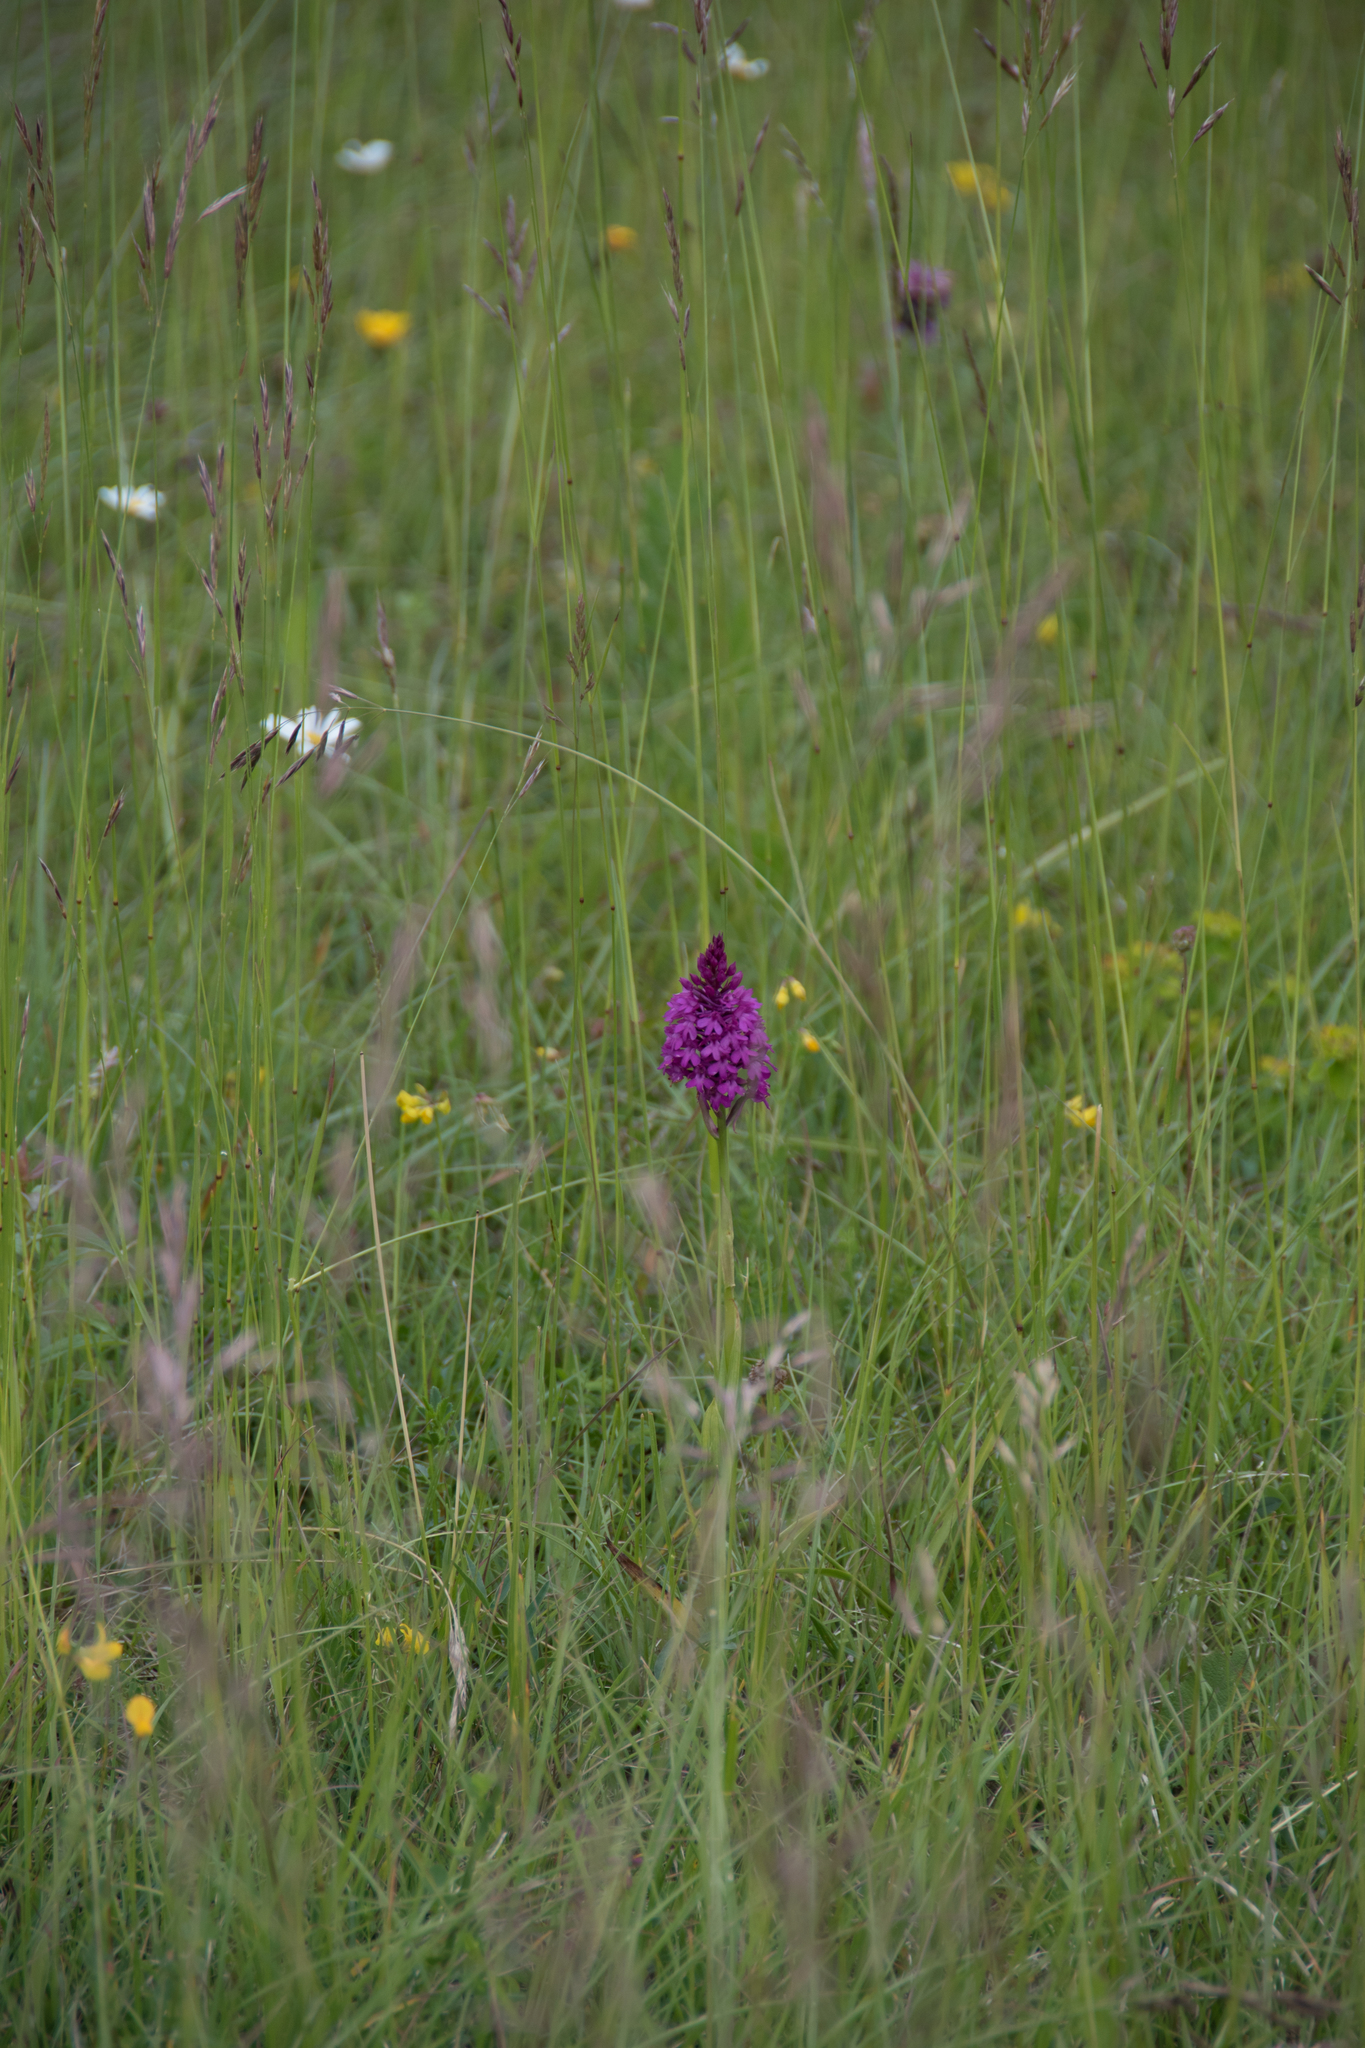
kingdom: Plantae
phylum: Tracheophyta
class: Liliopsida
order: Asparagales
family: Orchidaceae
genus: Anacamptis
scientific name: Anacamptis pyramidalis
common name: Pyramidal orchid
